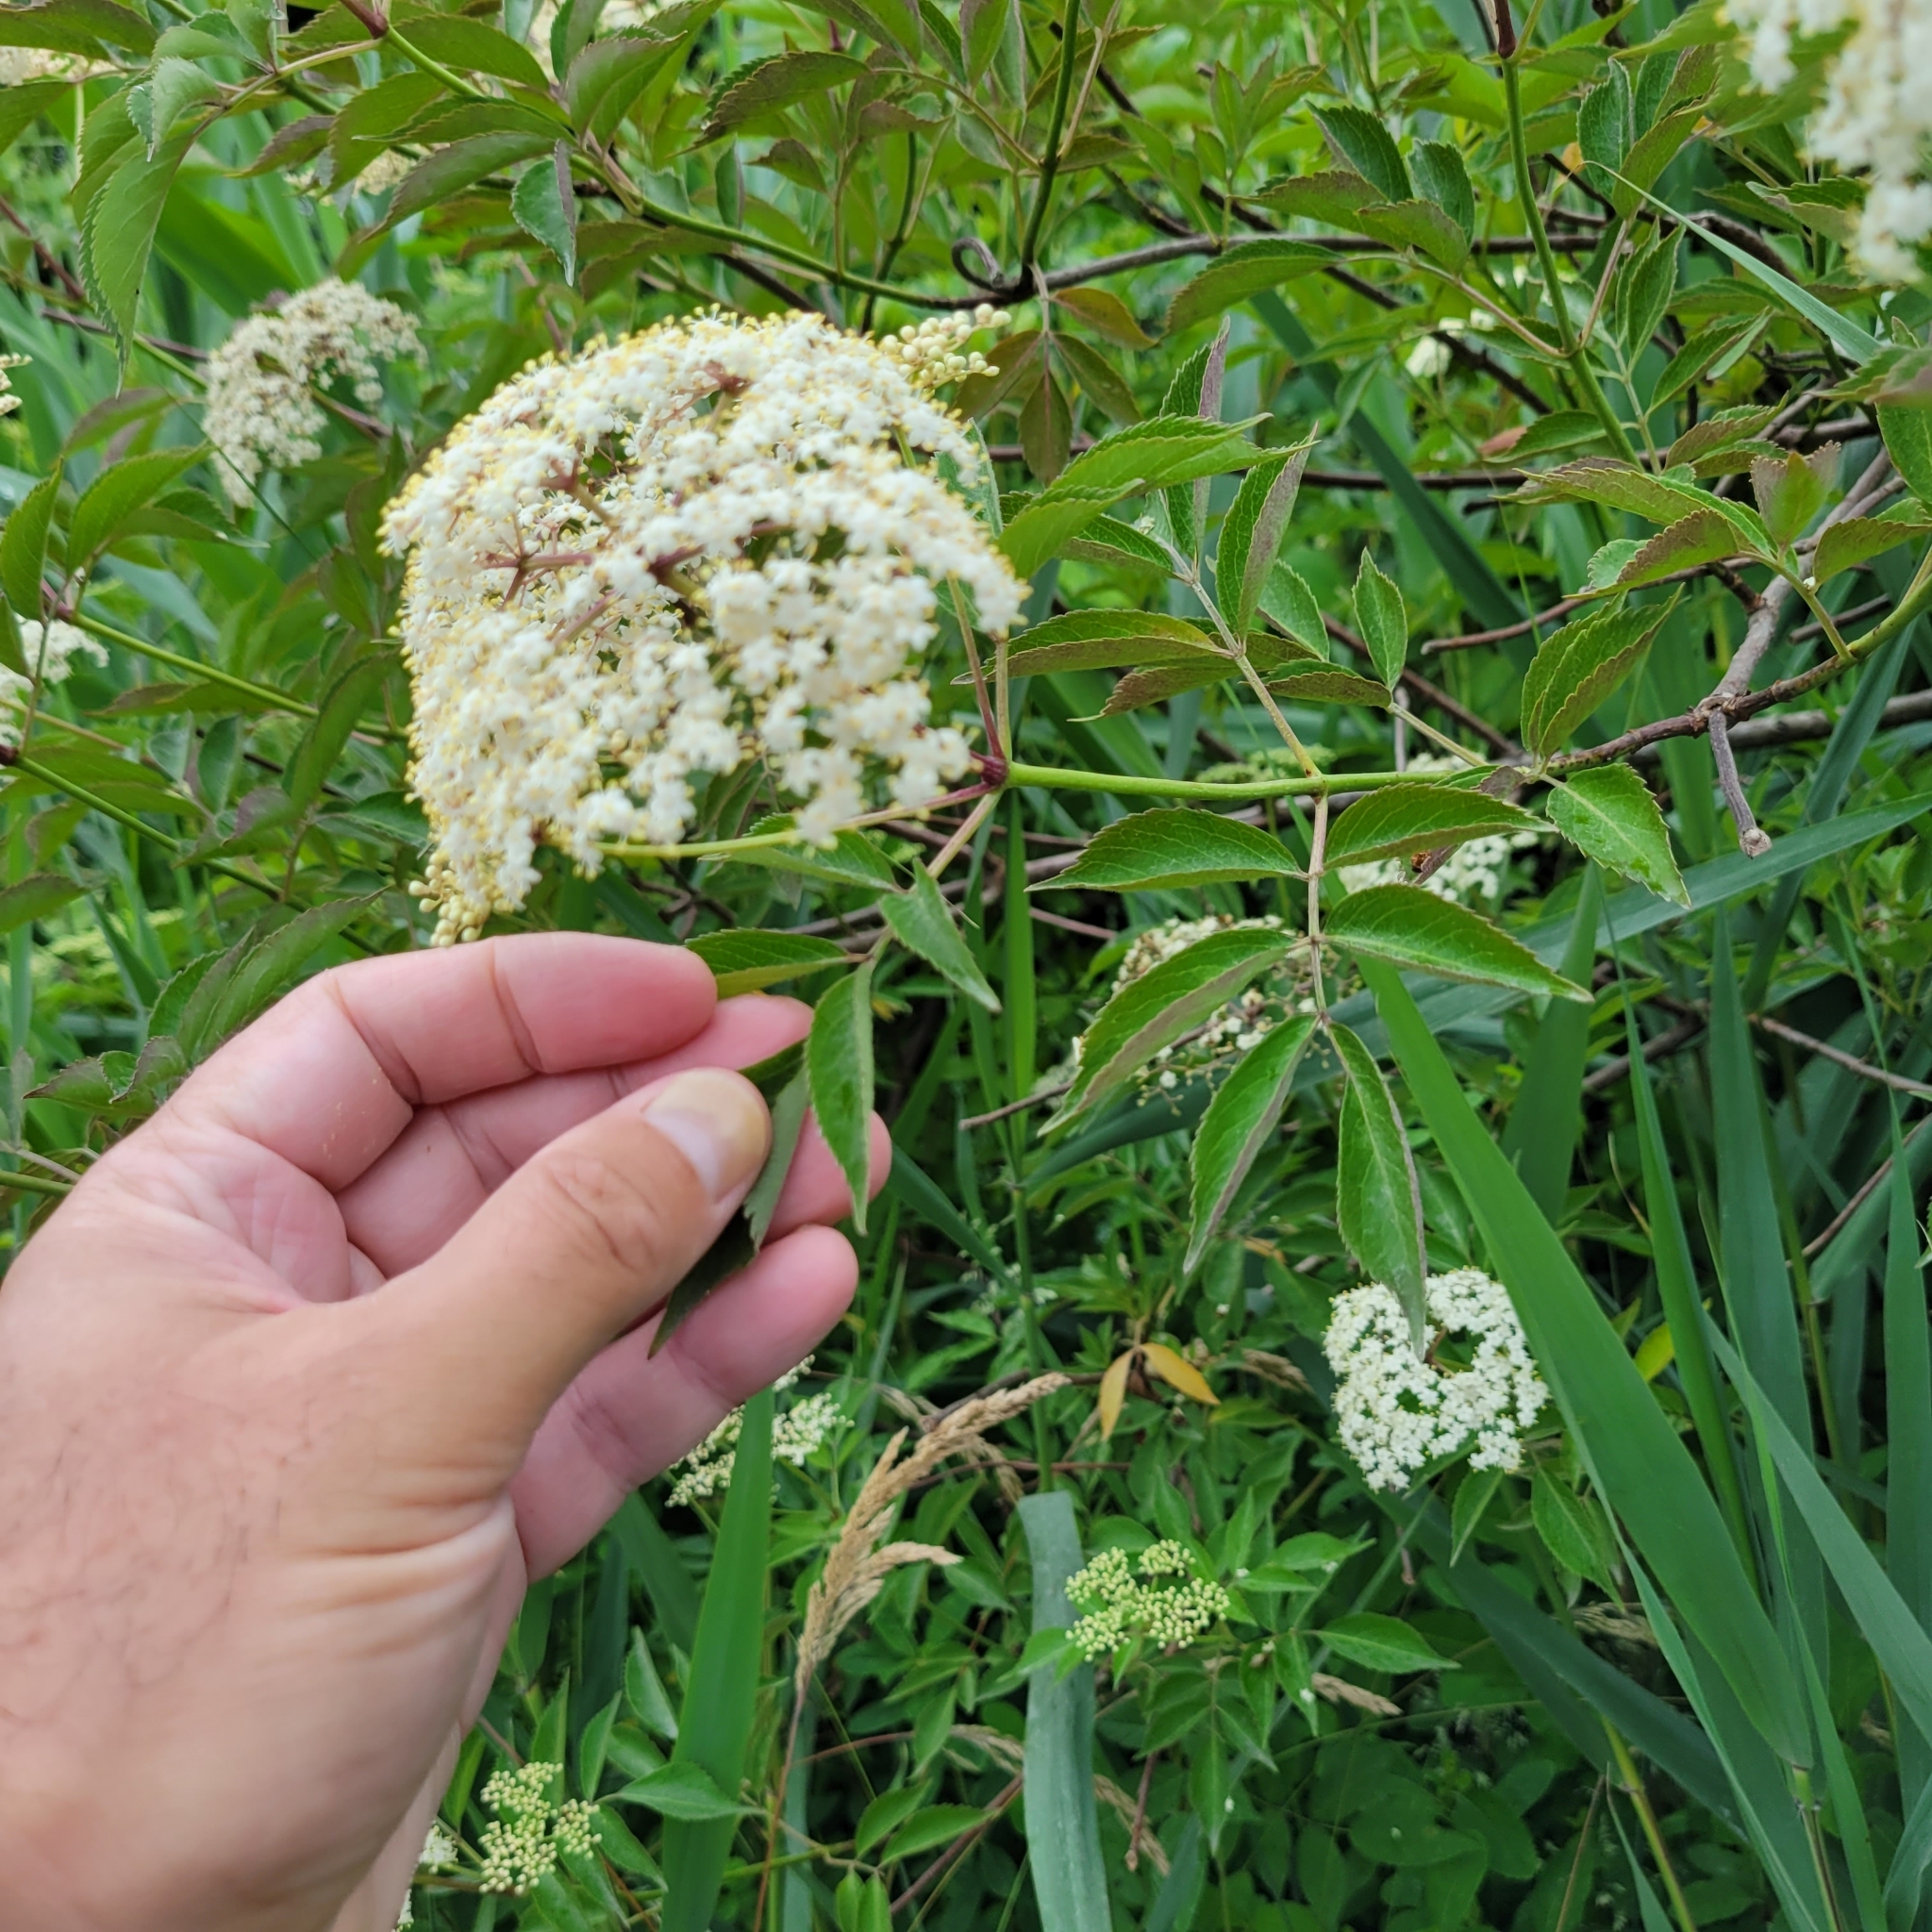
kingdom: Plantae
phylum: Tracheophyta
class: Magnoliopsida
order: Dipsacales
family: Viburnaceae
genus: Sambucus
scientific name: Sambucus canadensis
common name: American elder
